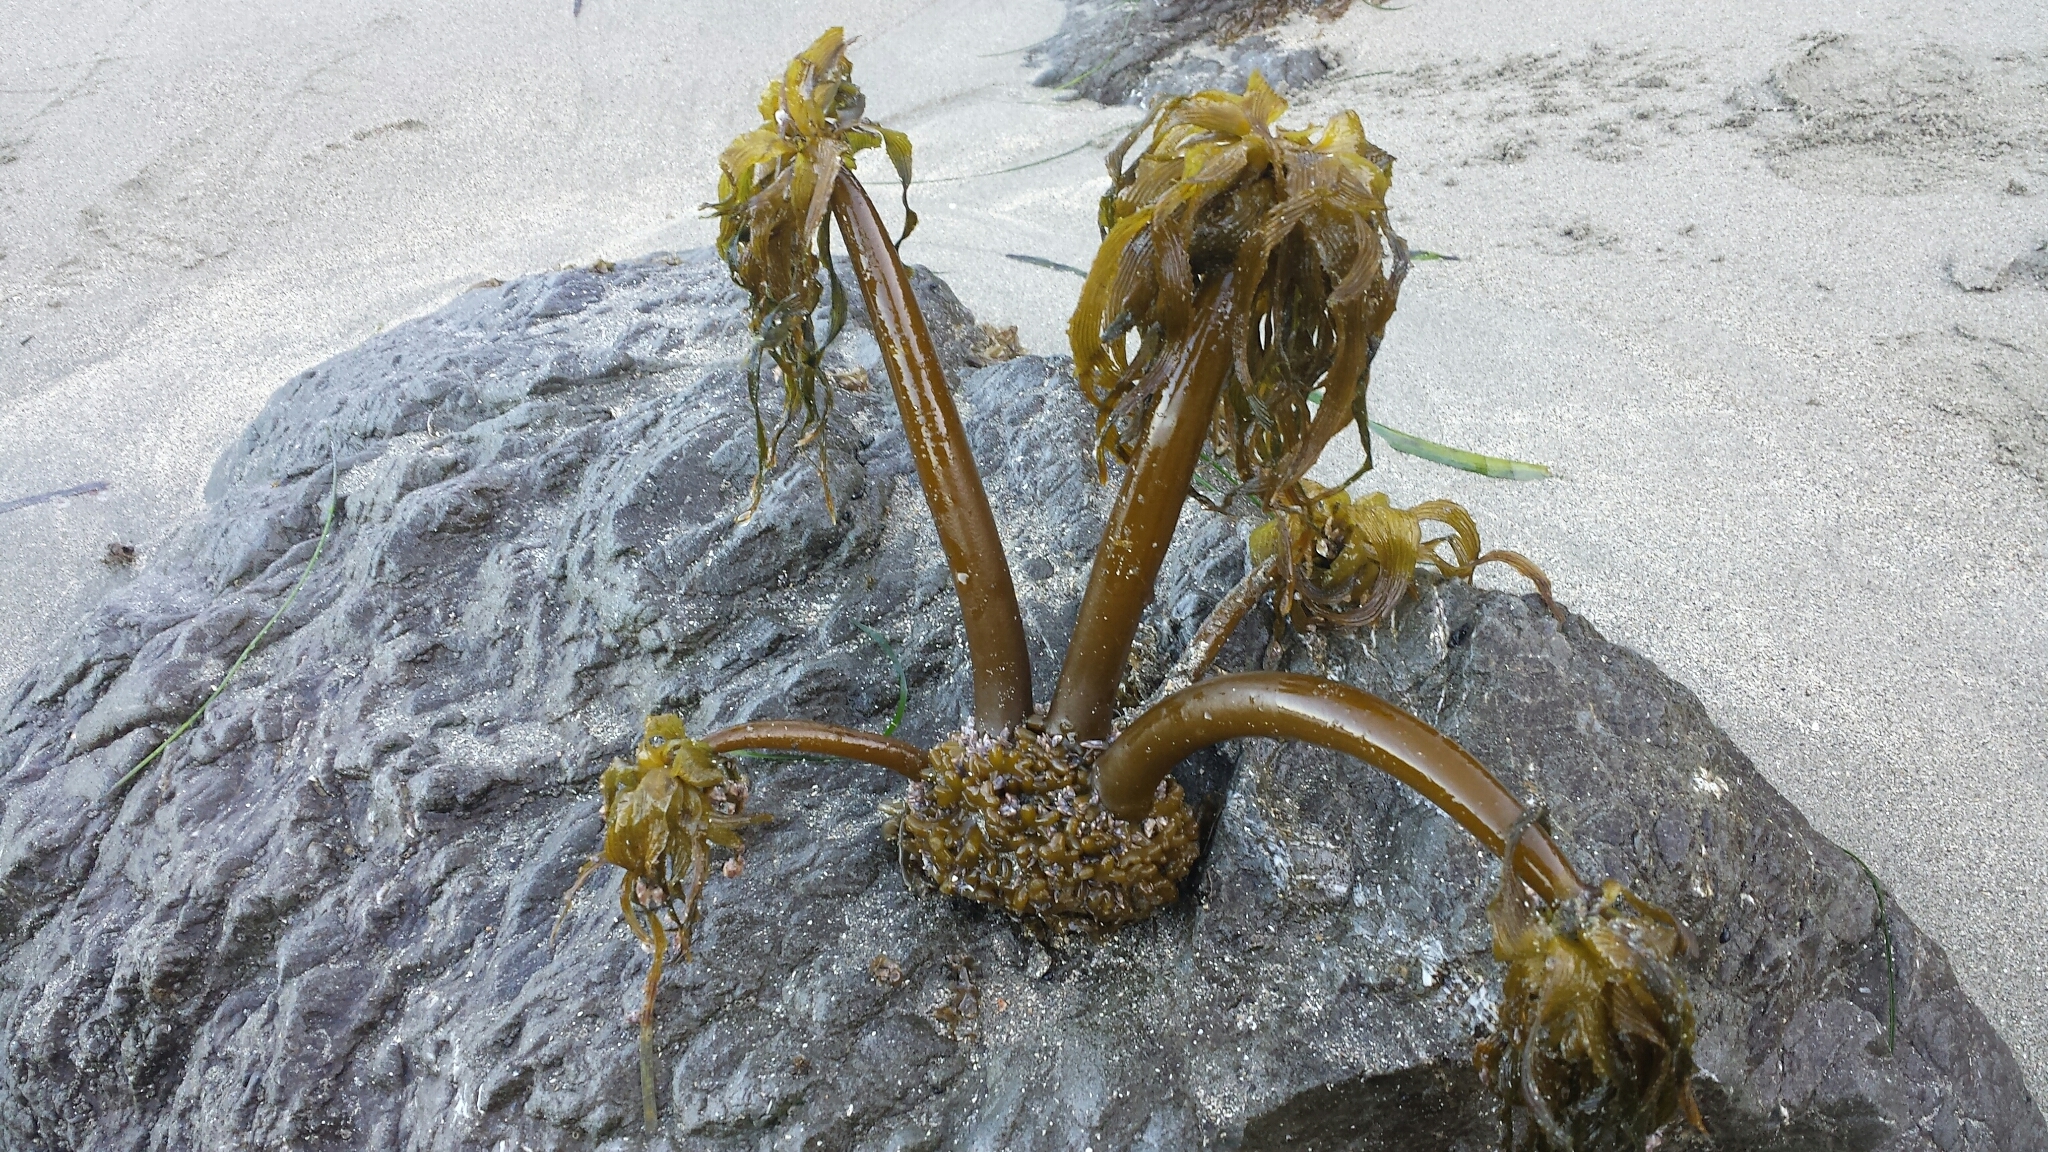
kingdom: Chromista
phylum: Ochrophyta
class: Phaeophyceae
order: Laminariales
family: Laminariaceae
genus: Postelsia
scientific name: Postelsia palmiformis
